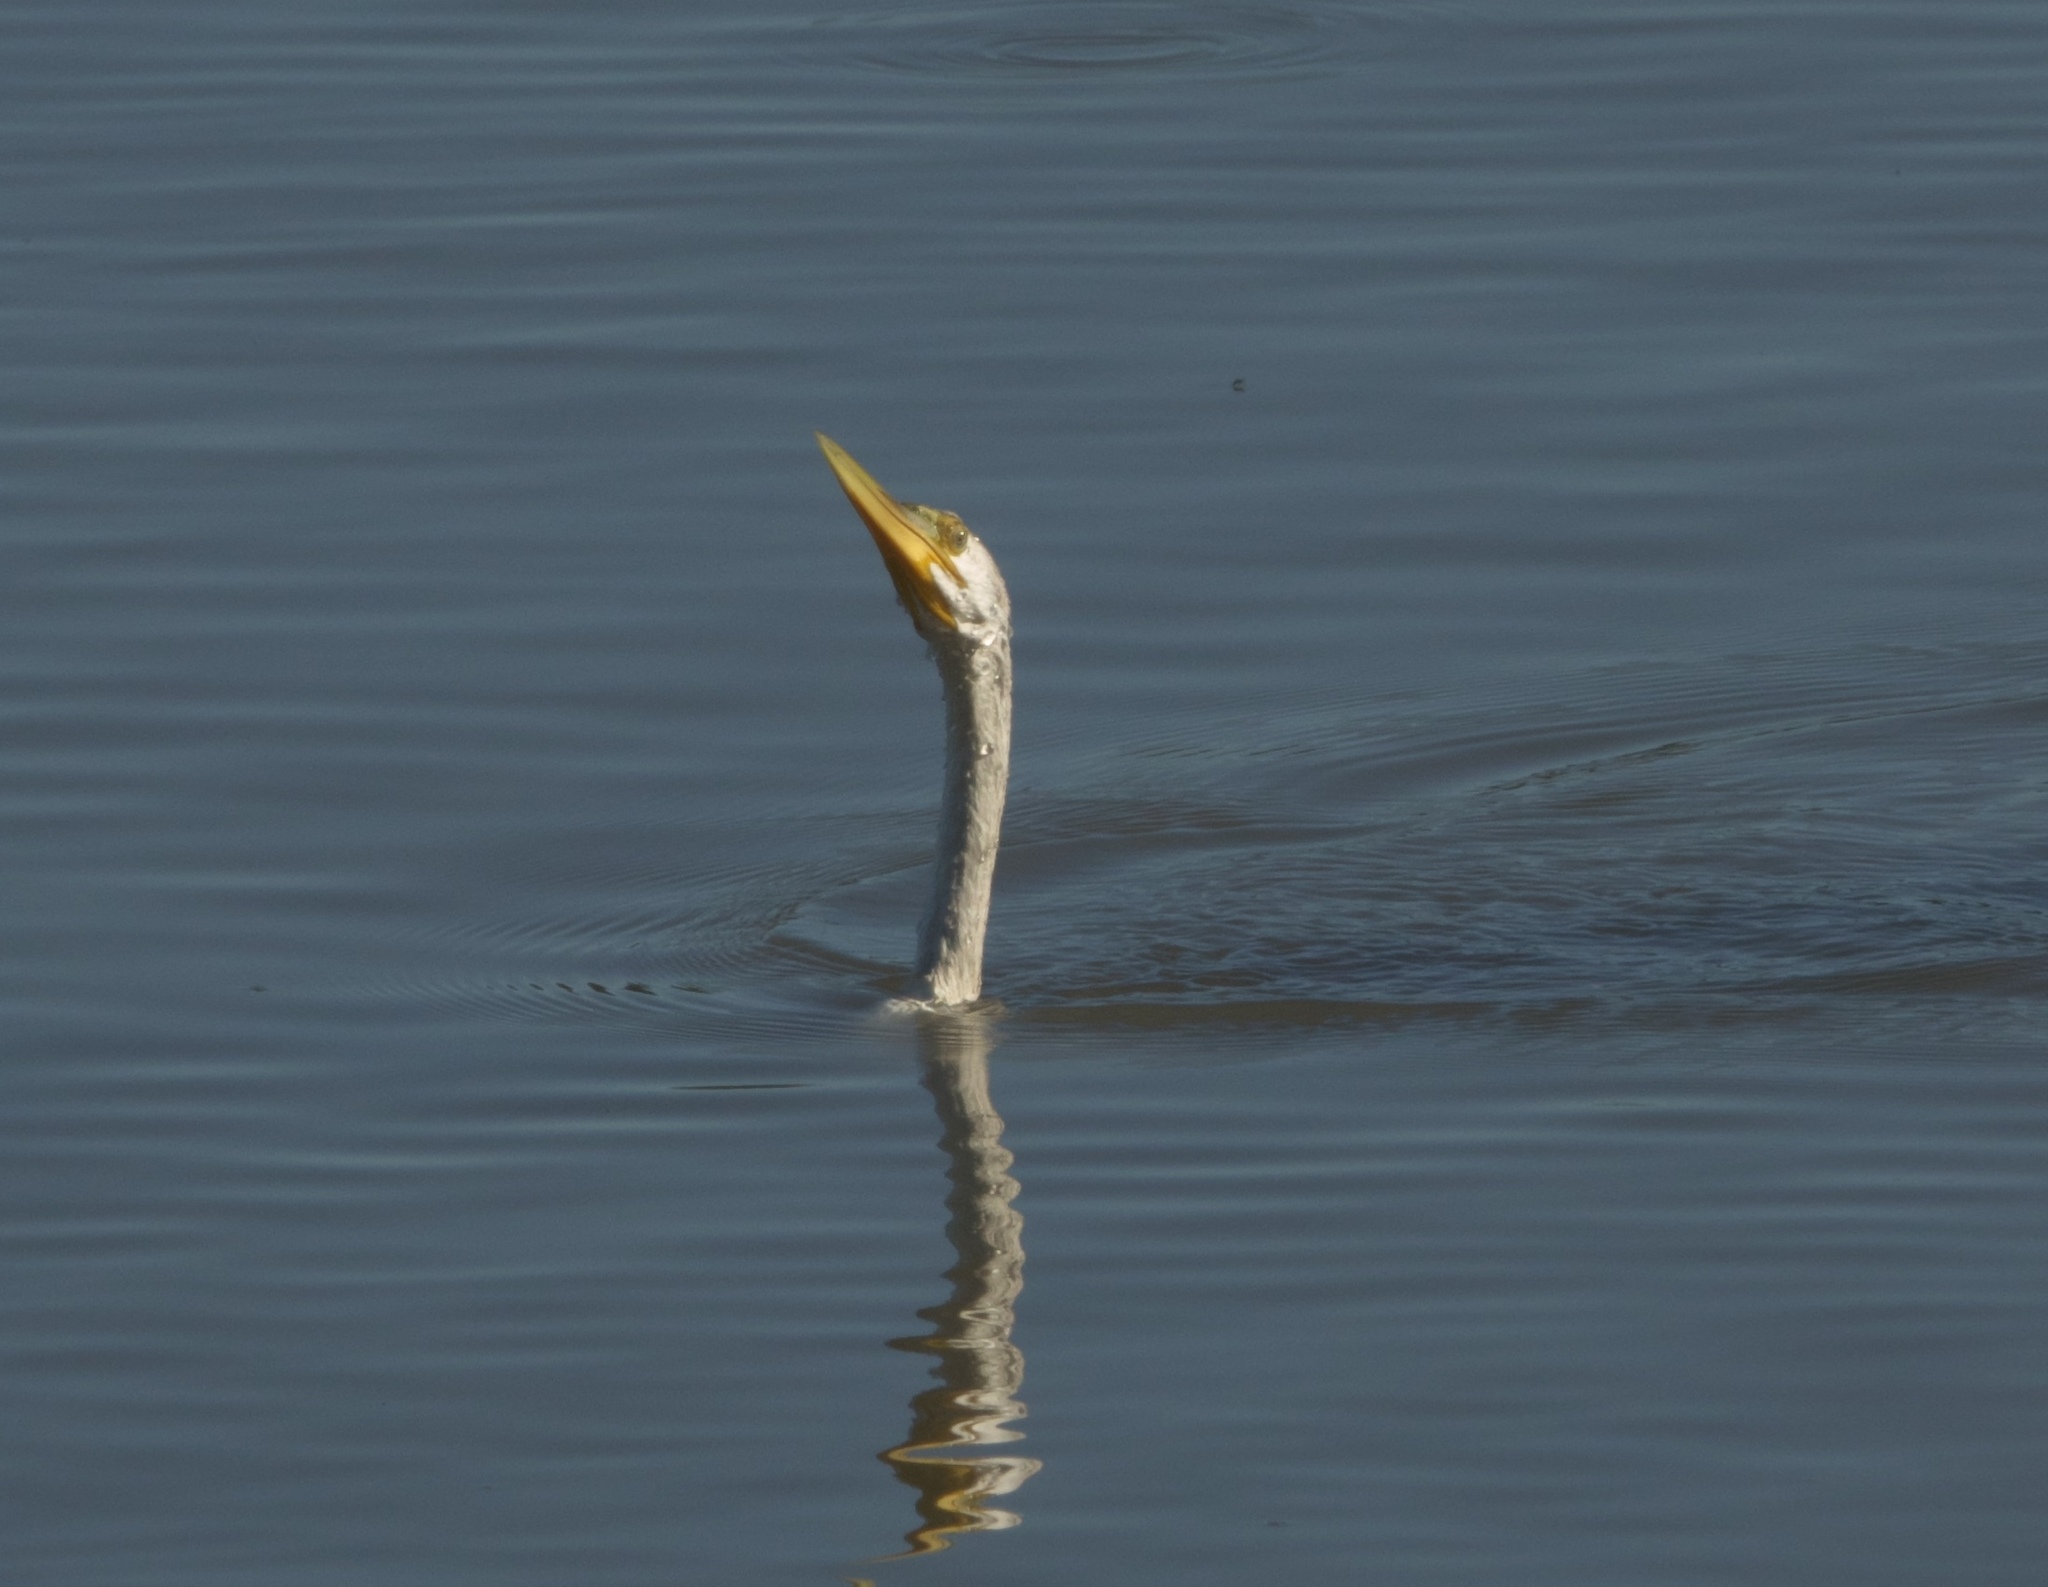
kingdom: Animalia
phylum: Chordata
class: Aves
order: Suliformes
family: Anhingidae
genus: Anhinga
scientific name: Anhinga novaehollandiae
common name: Australasian darter
